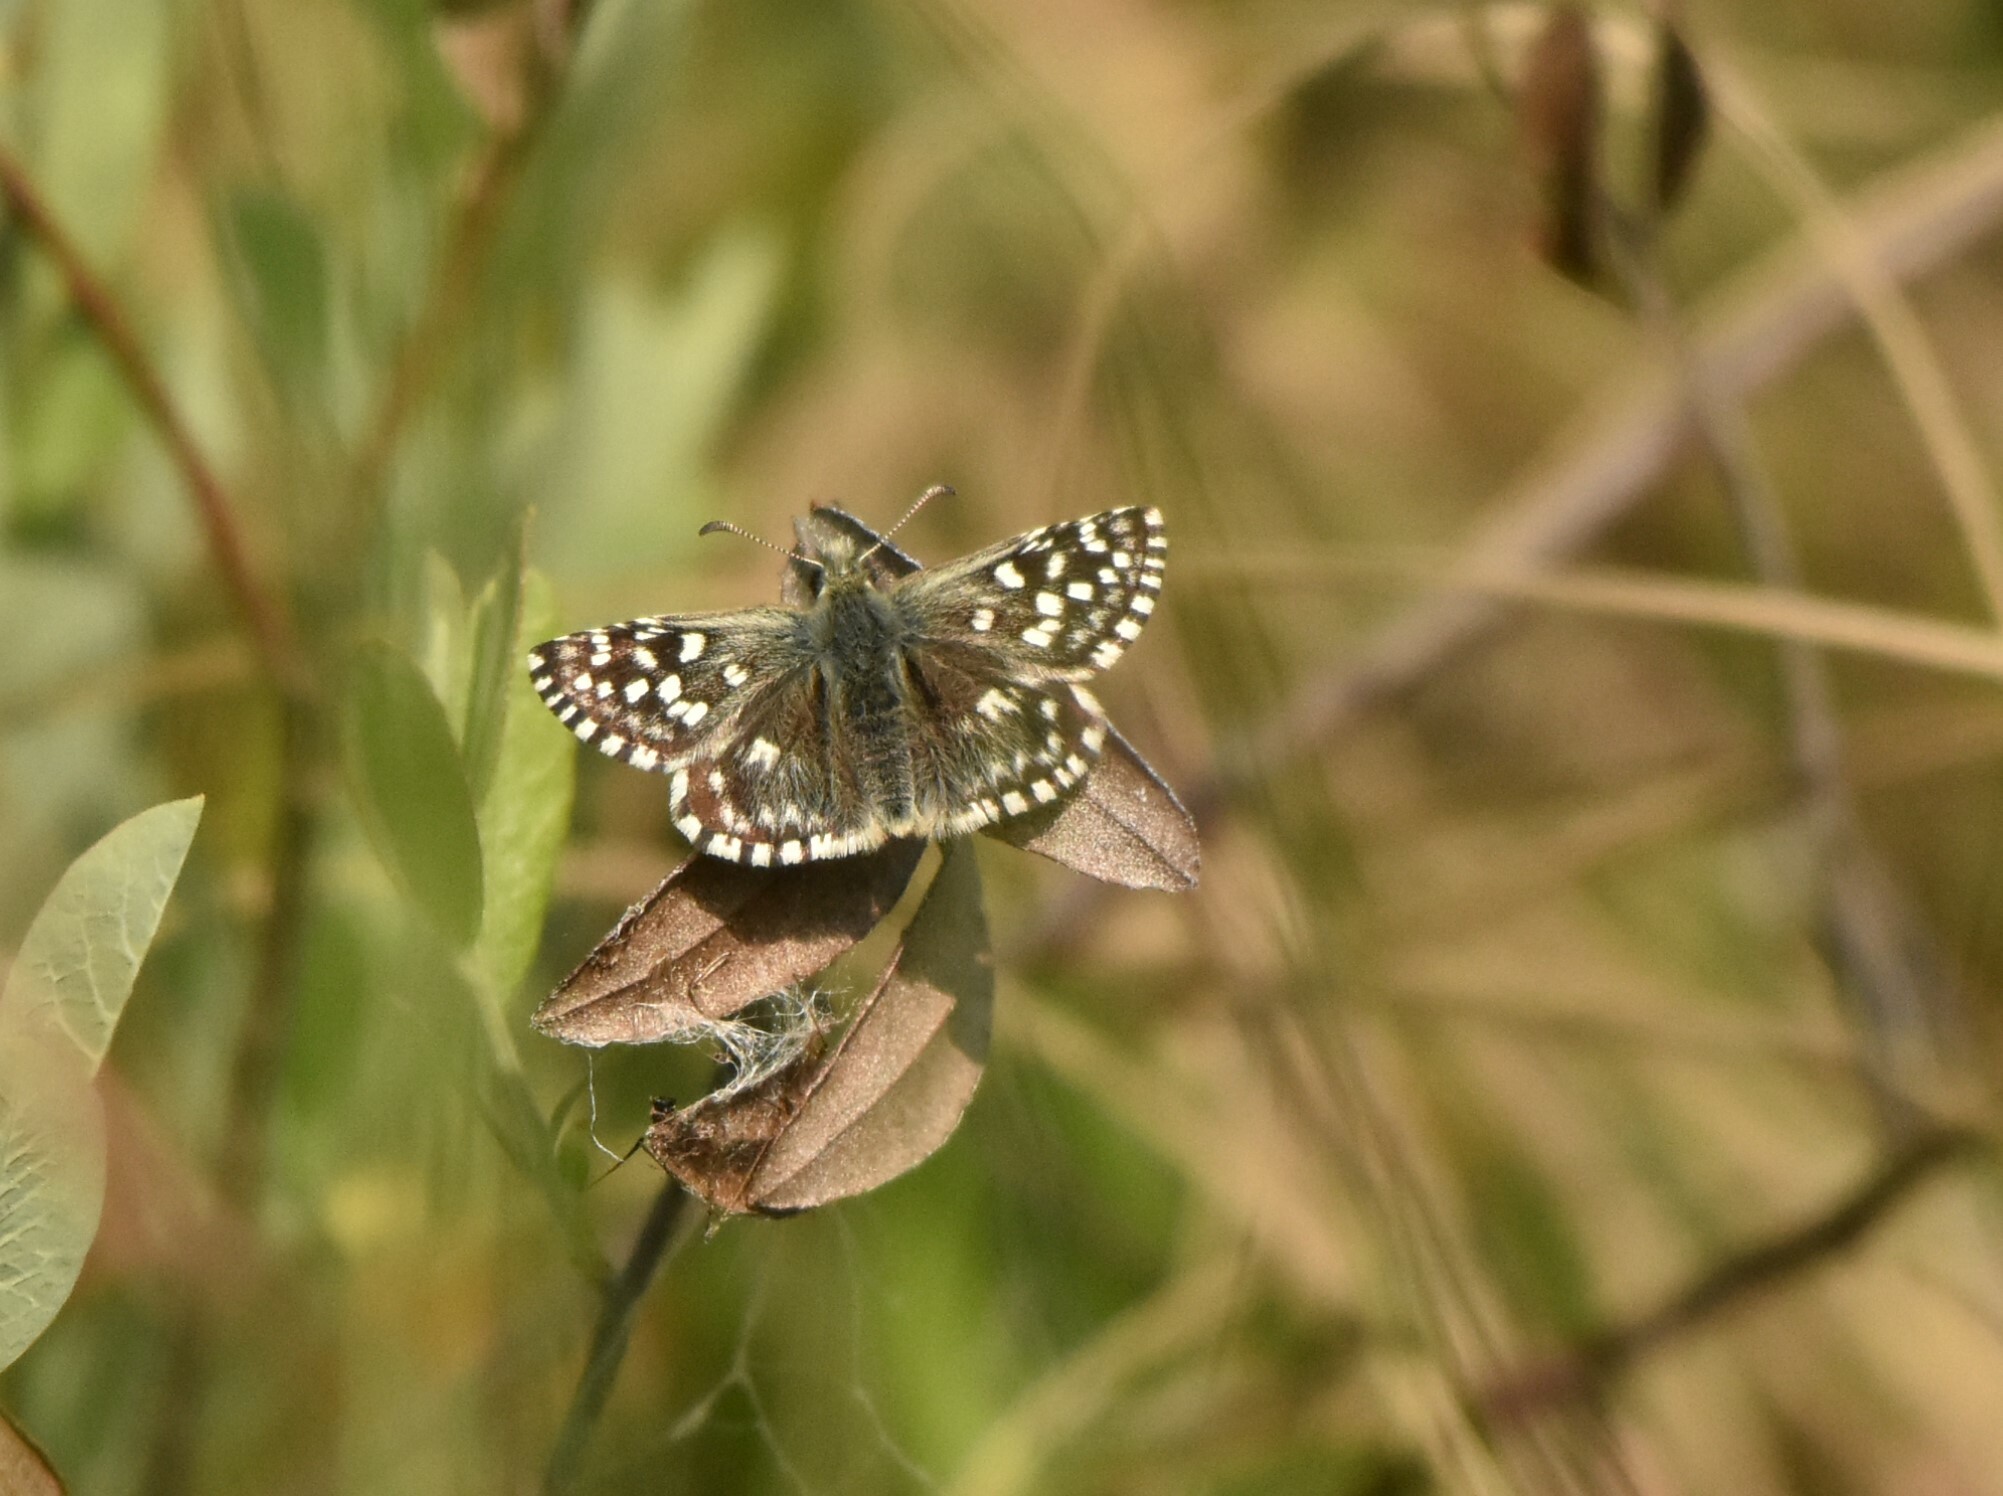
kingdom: Animalia
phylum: Arthropoda
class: Insecta
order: Lepidoptera
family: Hesperiidae
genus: Pyrgus
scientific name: Pyrgus malvae
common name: Grizzled skipper
